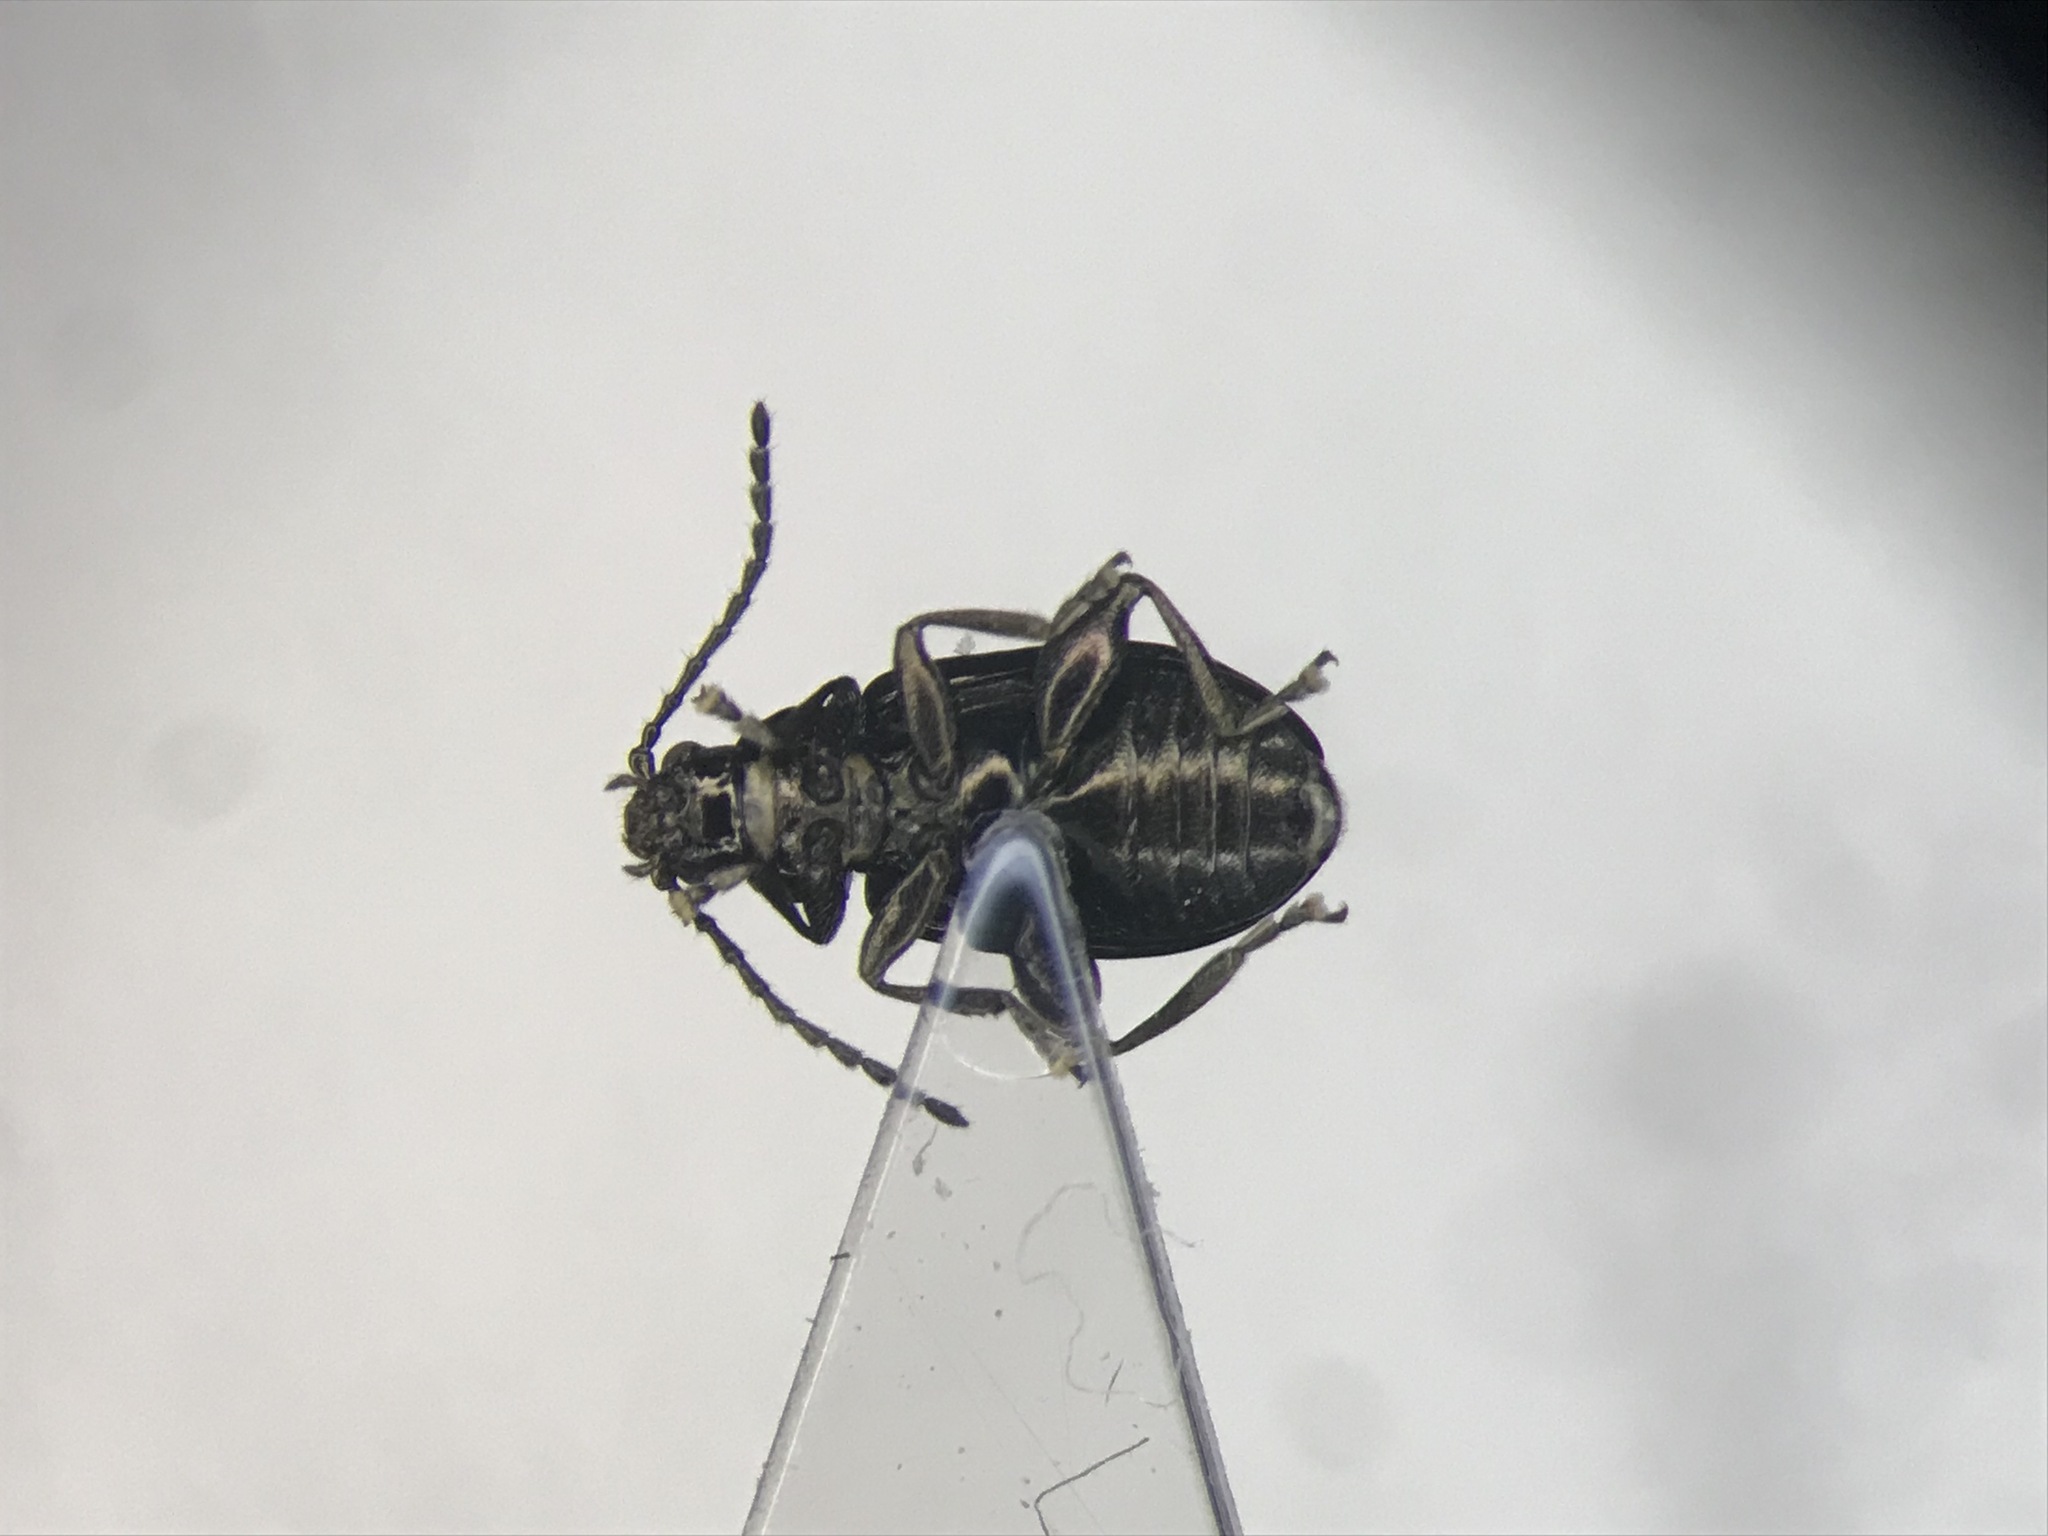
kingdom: Animalia
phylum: Arthropoda
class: Insecta
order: Coleoptera
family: Chrysomelidae
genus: Altica
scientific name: Altica corni
